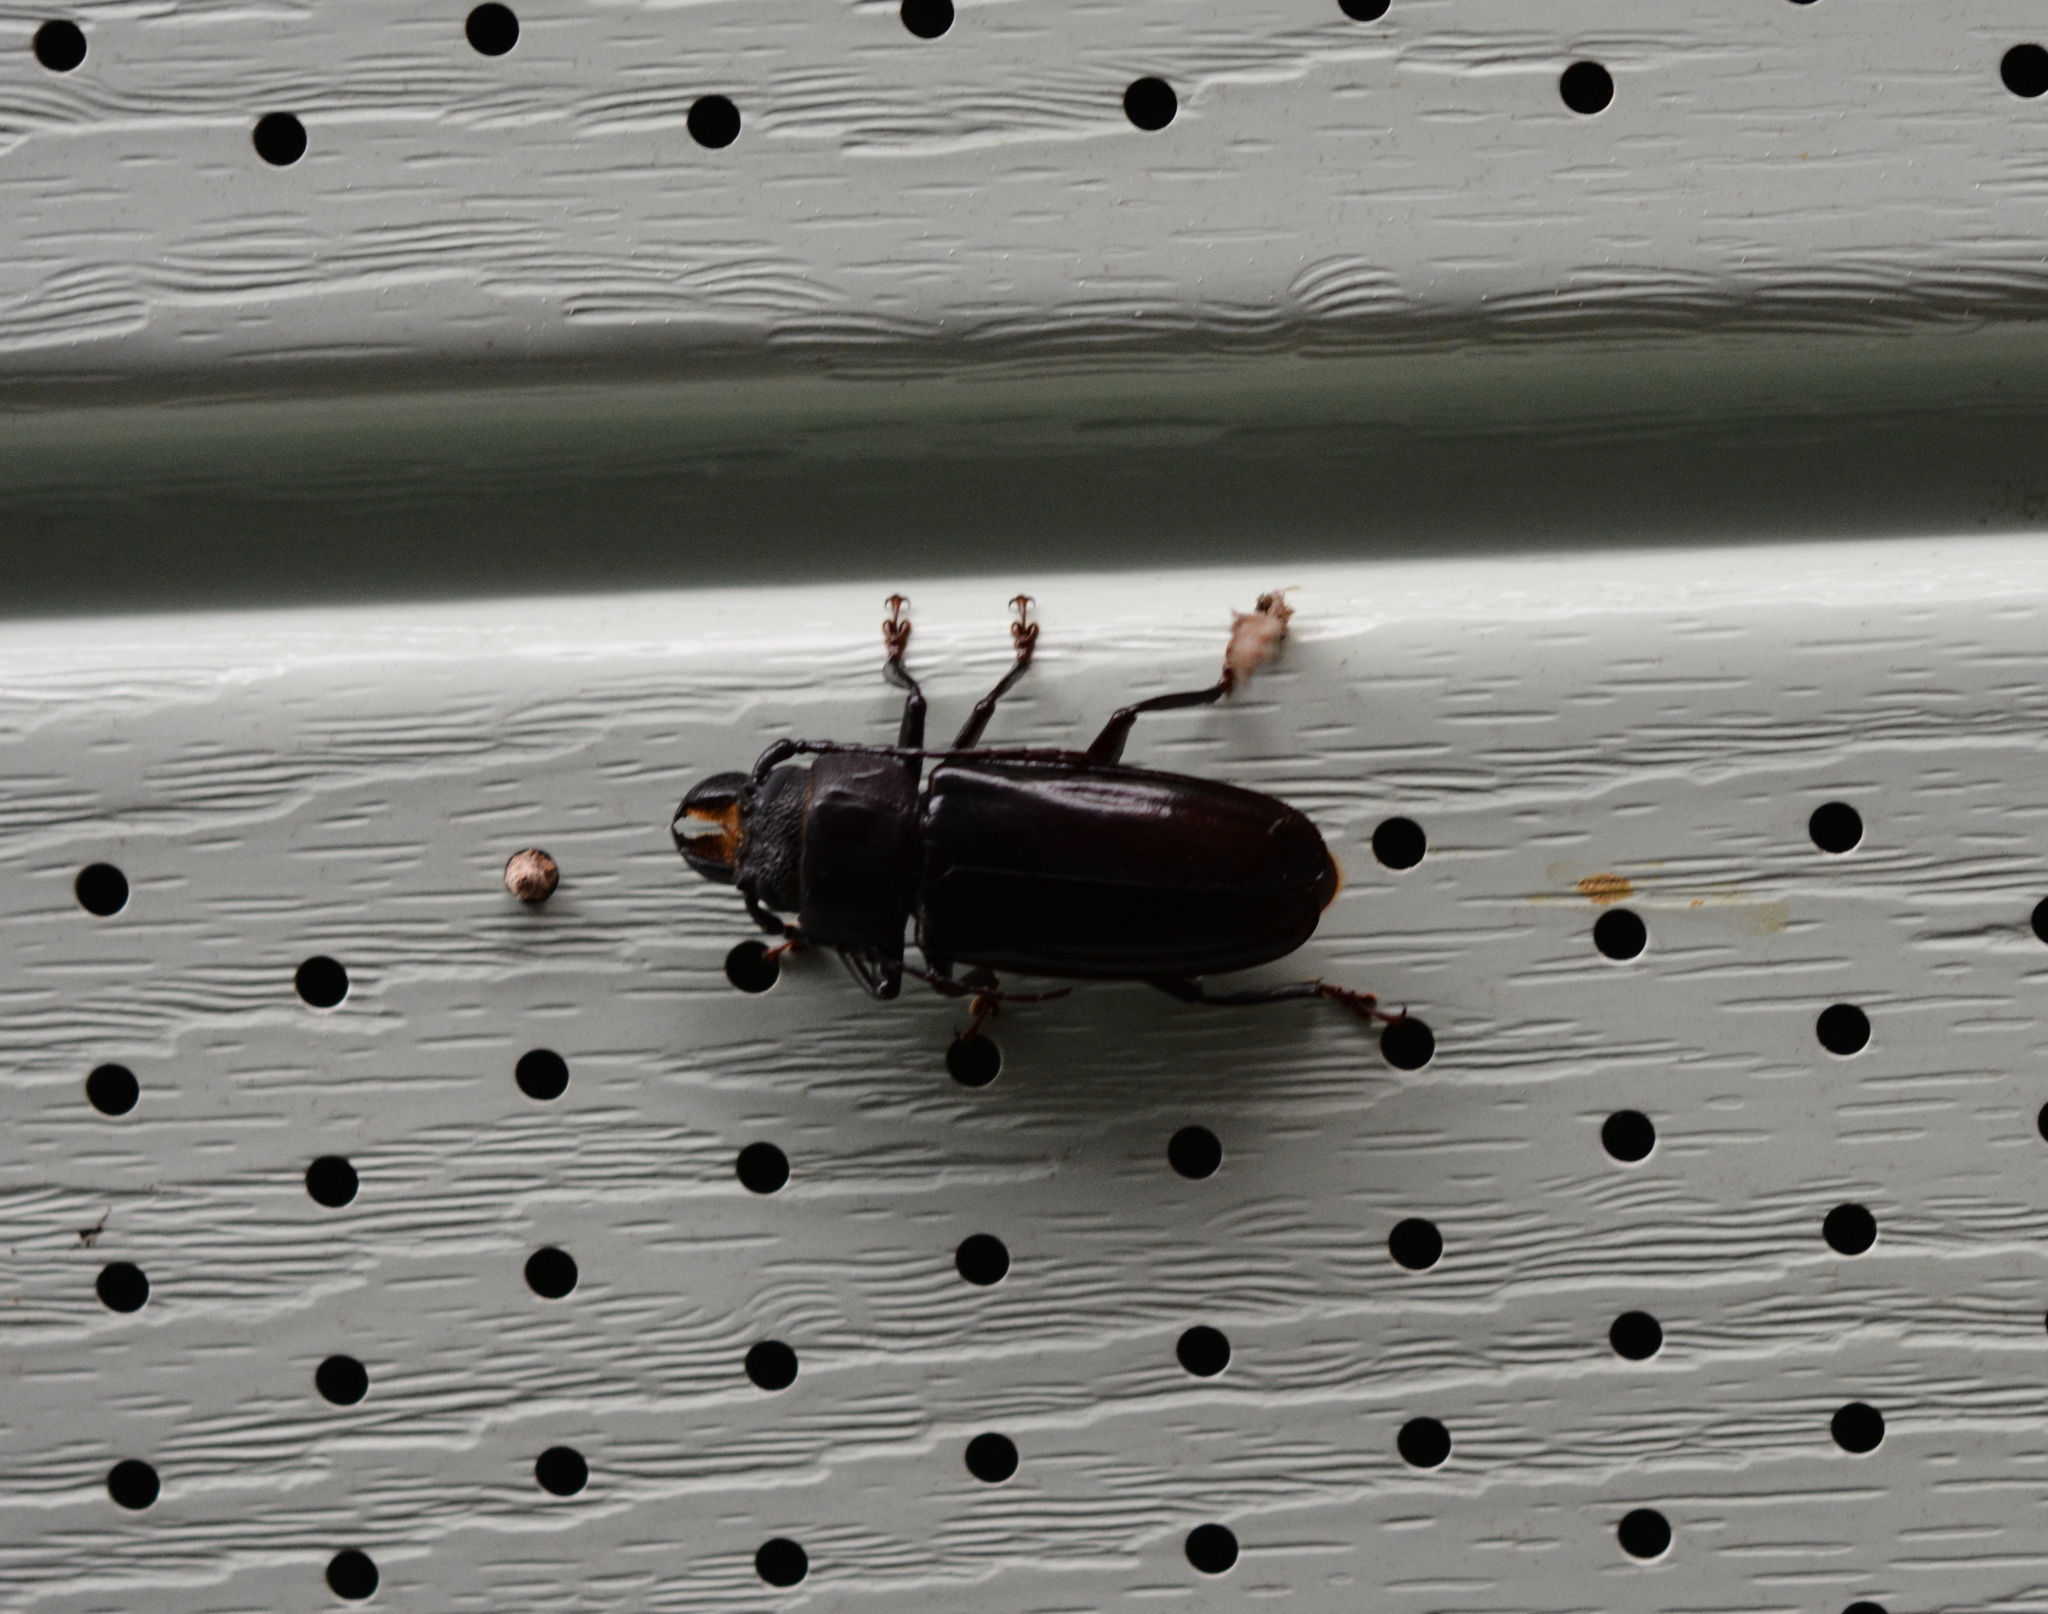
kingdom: Animalia
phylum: Arthropoda
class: Insecta
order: Coleoptera
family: Cerambycidae
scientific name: Cerambycidae
